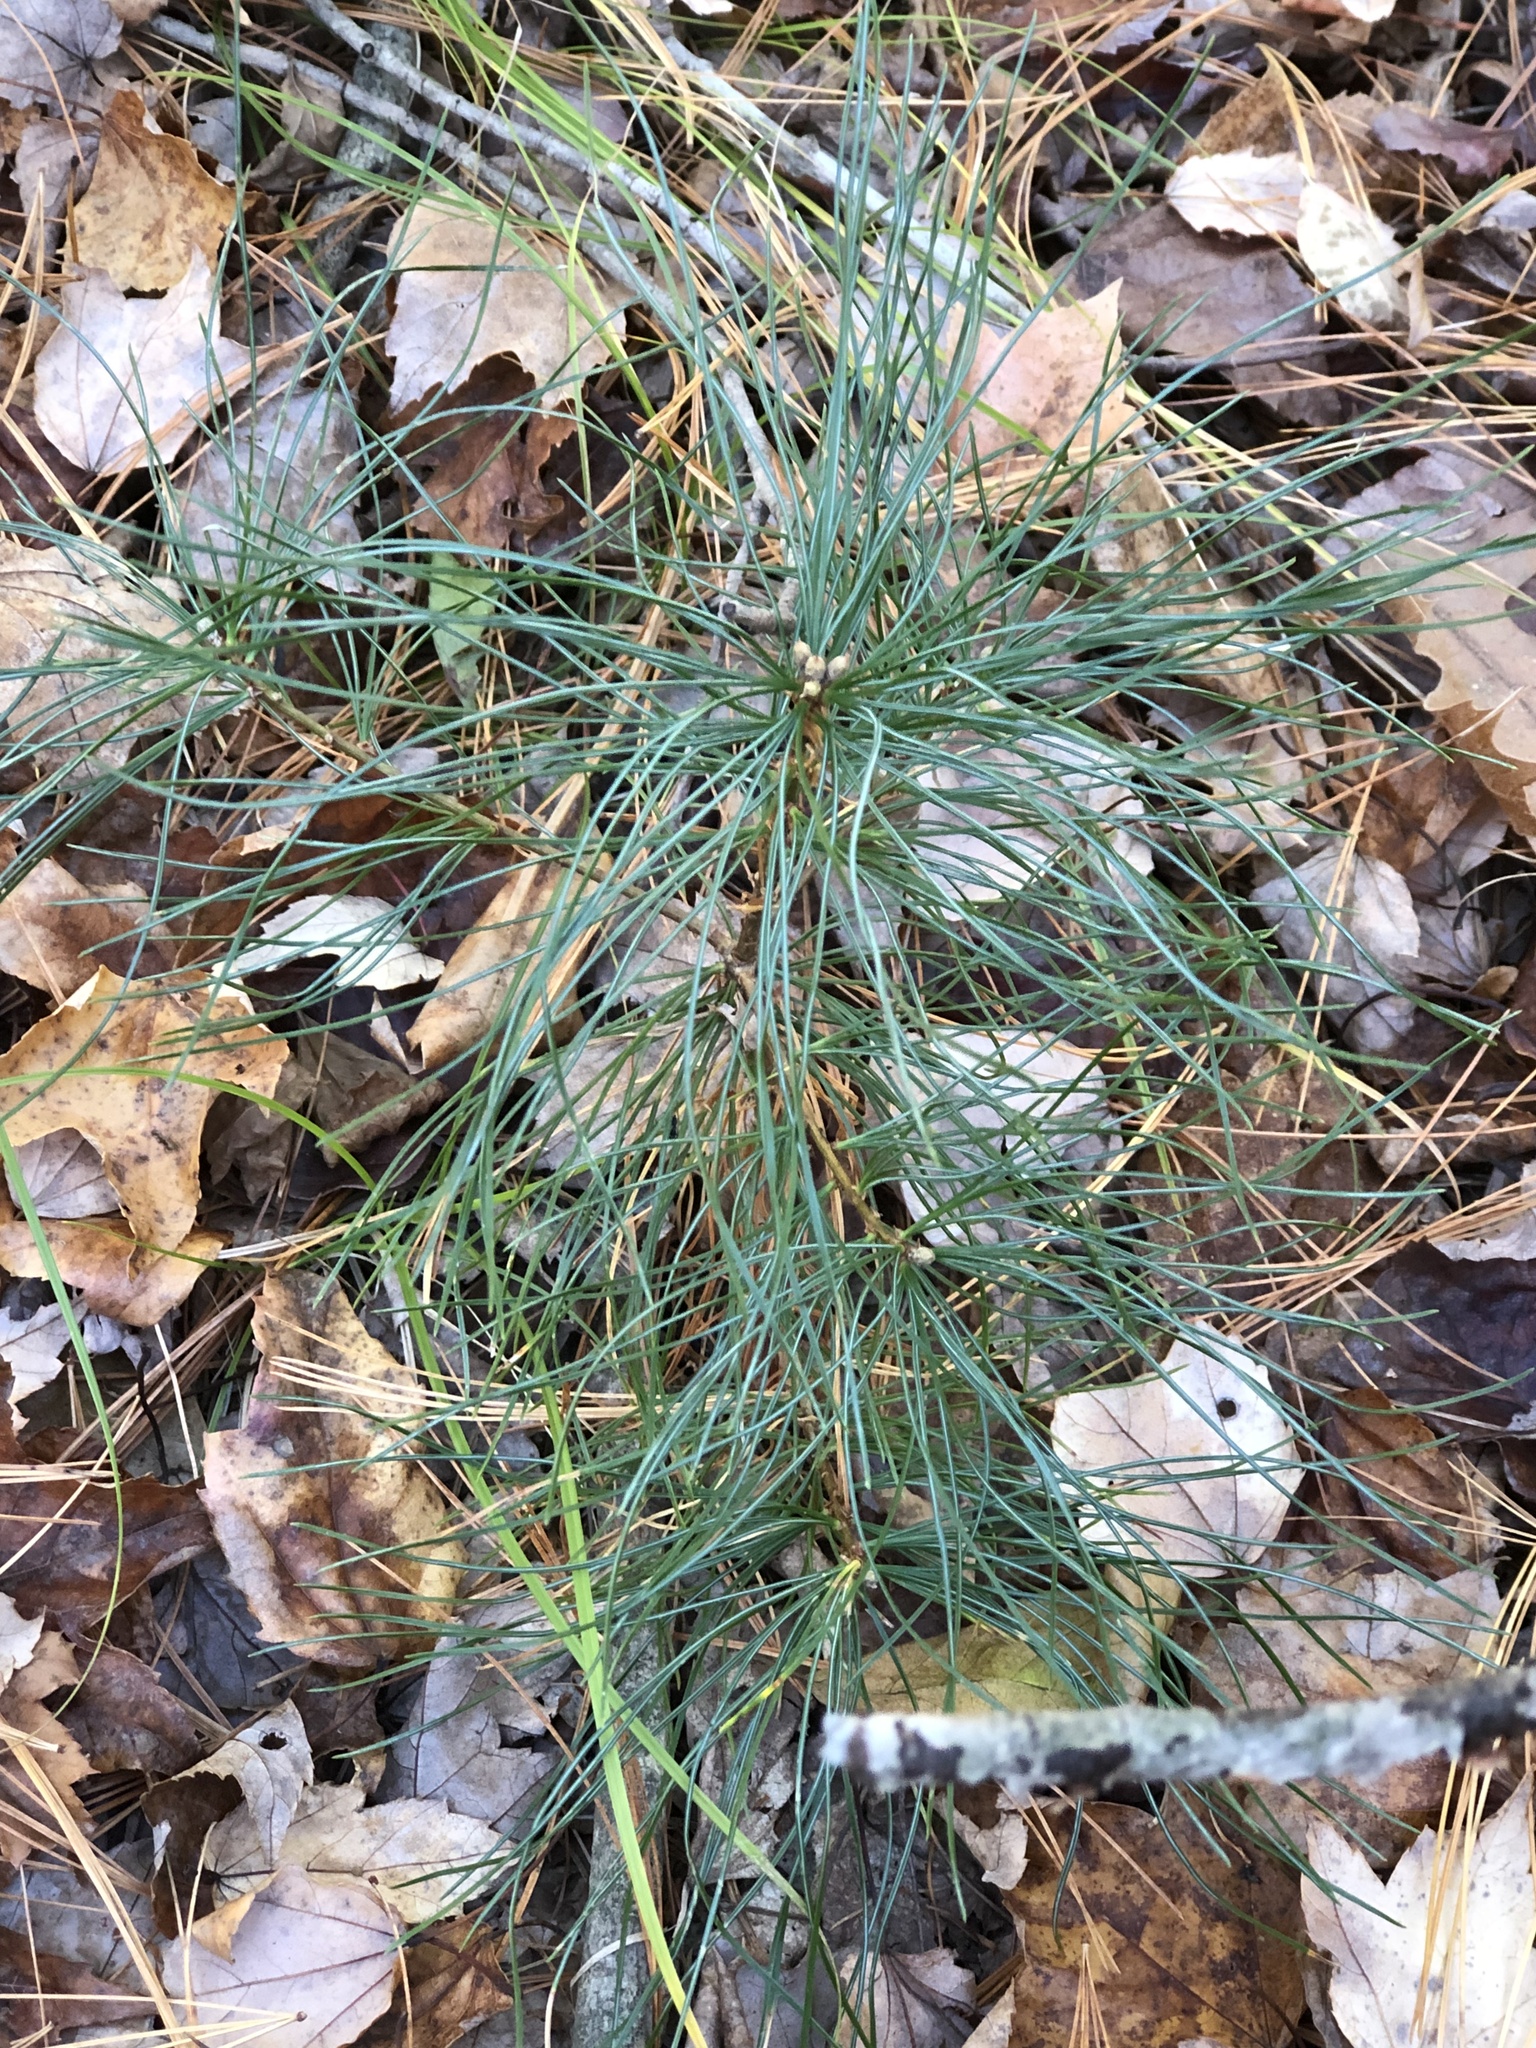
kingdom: Plantae
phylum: Tracheophyta
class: Pinopsida
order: Pinales
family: Pinaceae
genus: Pinus
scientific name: Pinus strobus
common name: Weymouth pine
